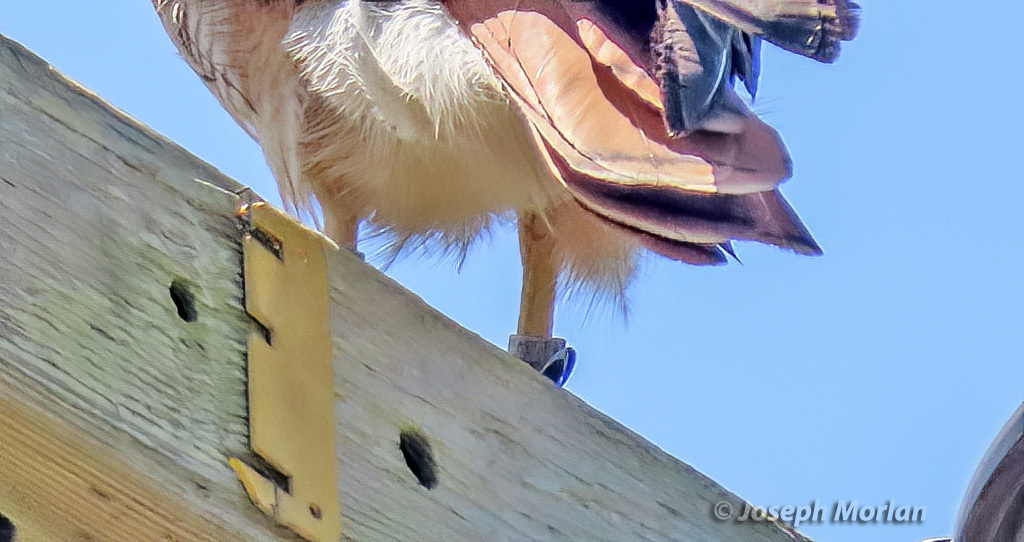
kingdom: Animalia
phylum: Chordata
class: Aves
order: Accipitriformes
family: Accipitridae
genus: Buteo
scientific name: Buteo jamaicensis
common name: Red-tailed hawk
